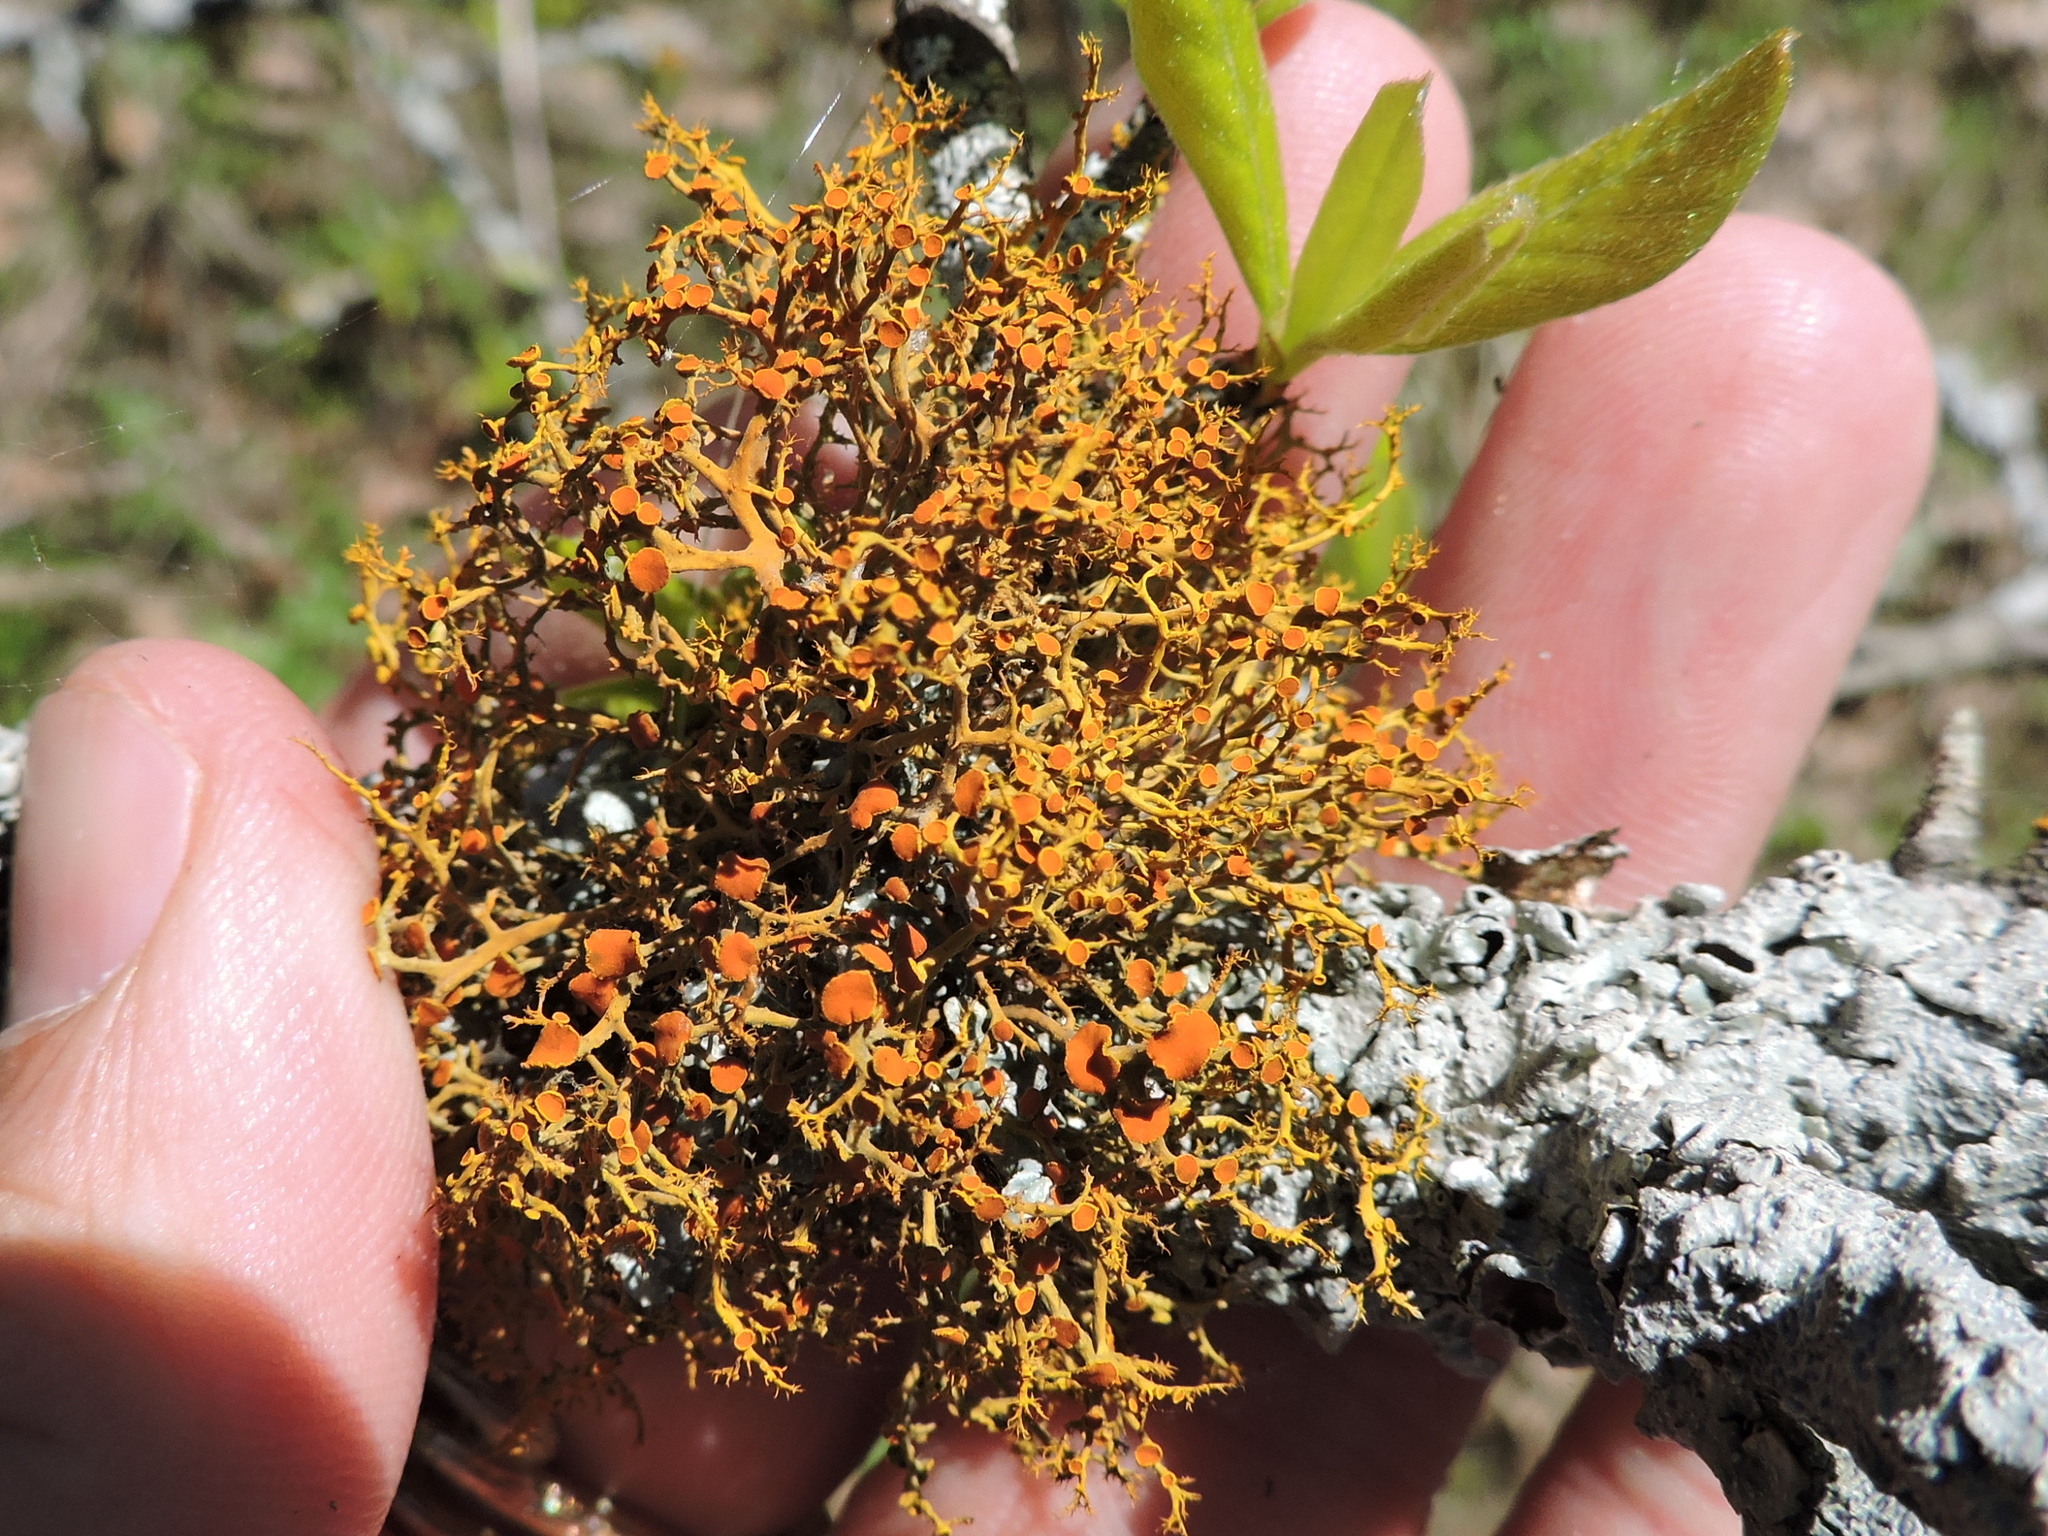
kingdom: Fungi
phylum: Ascomycota
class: Lecanoromycetes
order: Teloschistales
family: Teloschistaceae
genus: Teloschistes
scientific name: Teloschistes exilis
